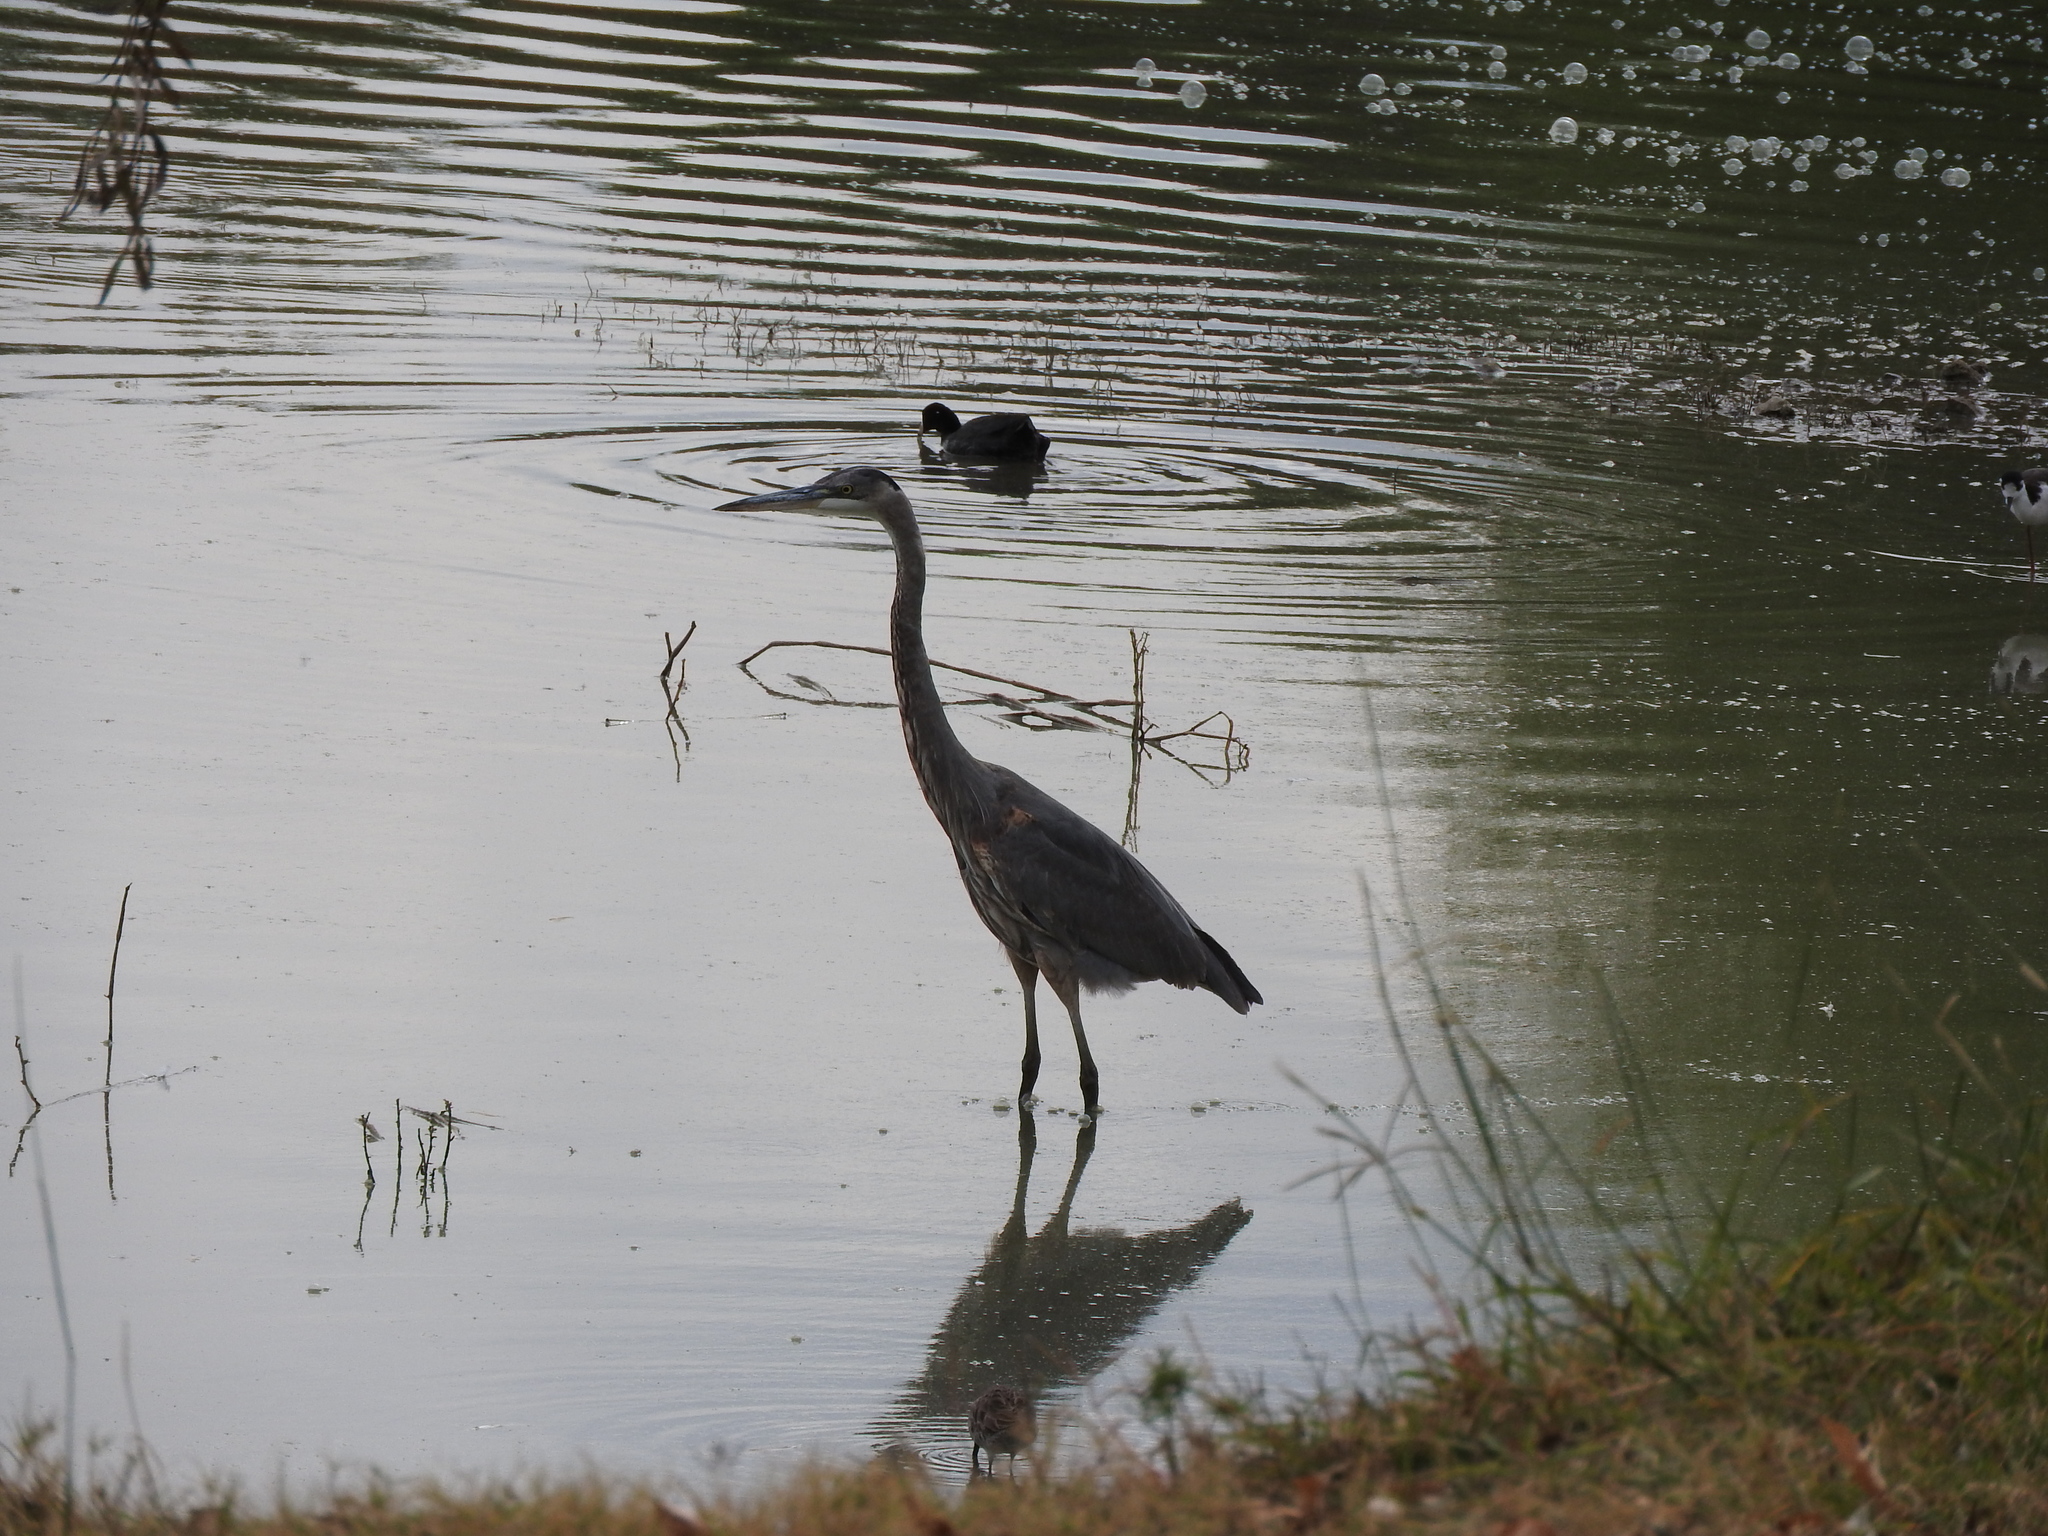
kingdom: Animalia
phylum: Chordata
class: Aves
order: Pelecaniformes
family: Ardeidae
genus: Ardea
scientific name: Ardea herodias
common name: Great blue heron
